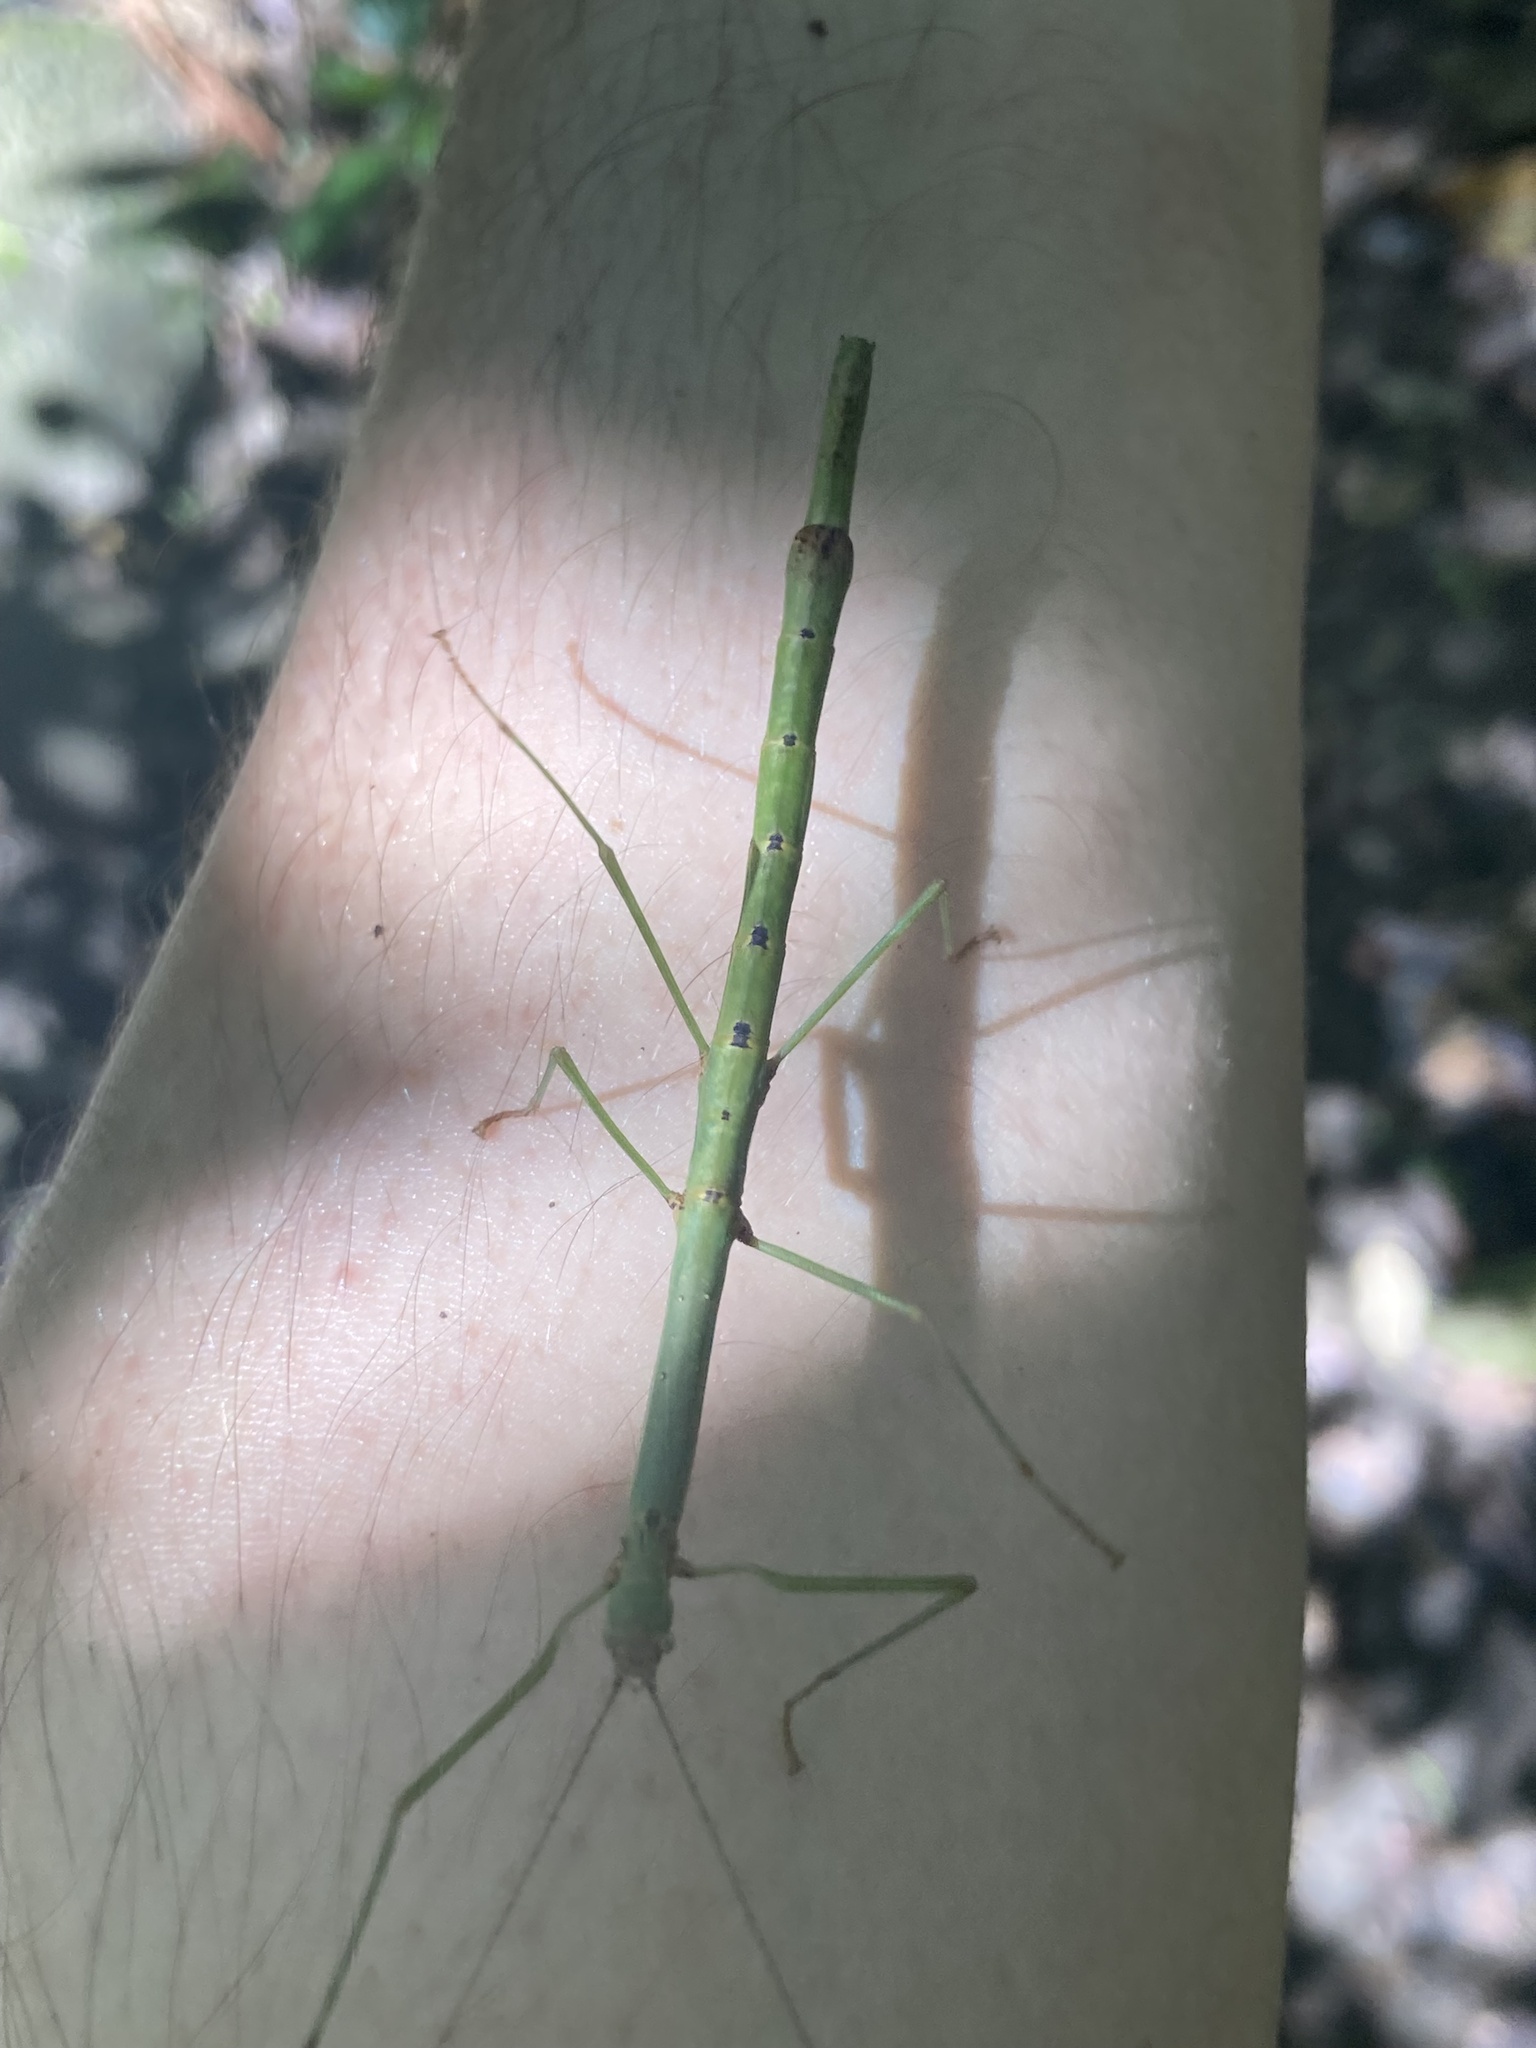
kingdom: Animalia
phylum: Arthropoda
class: Insecta
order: Phasmida
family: Lonchodidae
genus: Candovia
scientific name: Candovia strumosa
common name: Richmond river stick-insect
